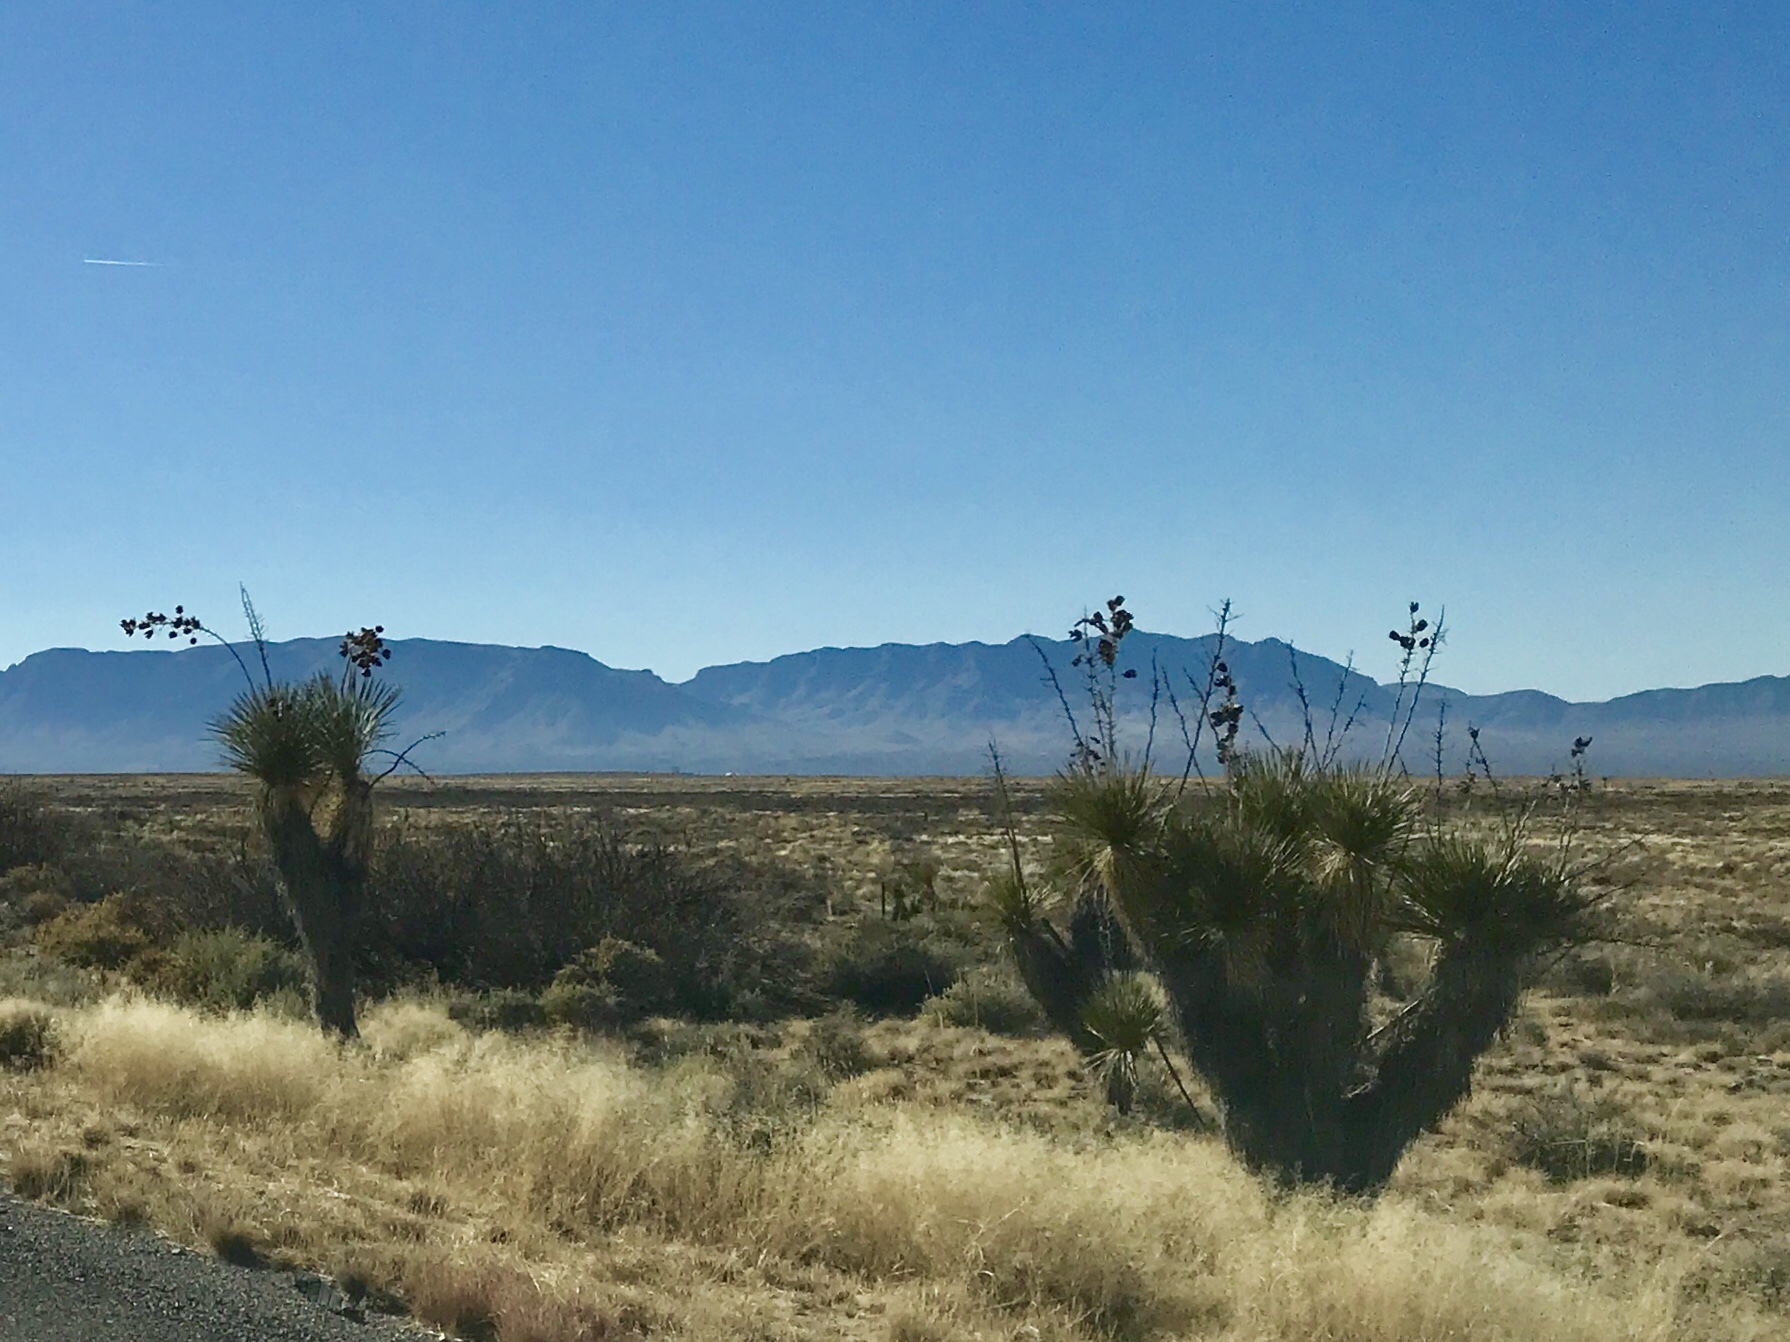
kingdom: Plantae
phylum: Tracheophyta
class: Liliopsida
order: Asparagales
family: Asparagaceae
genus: Yucca
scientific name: Yucca elata
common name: Palmella
